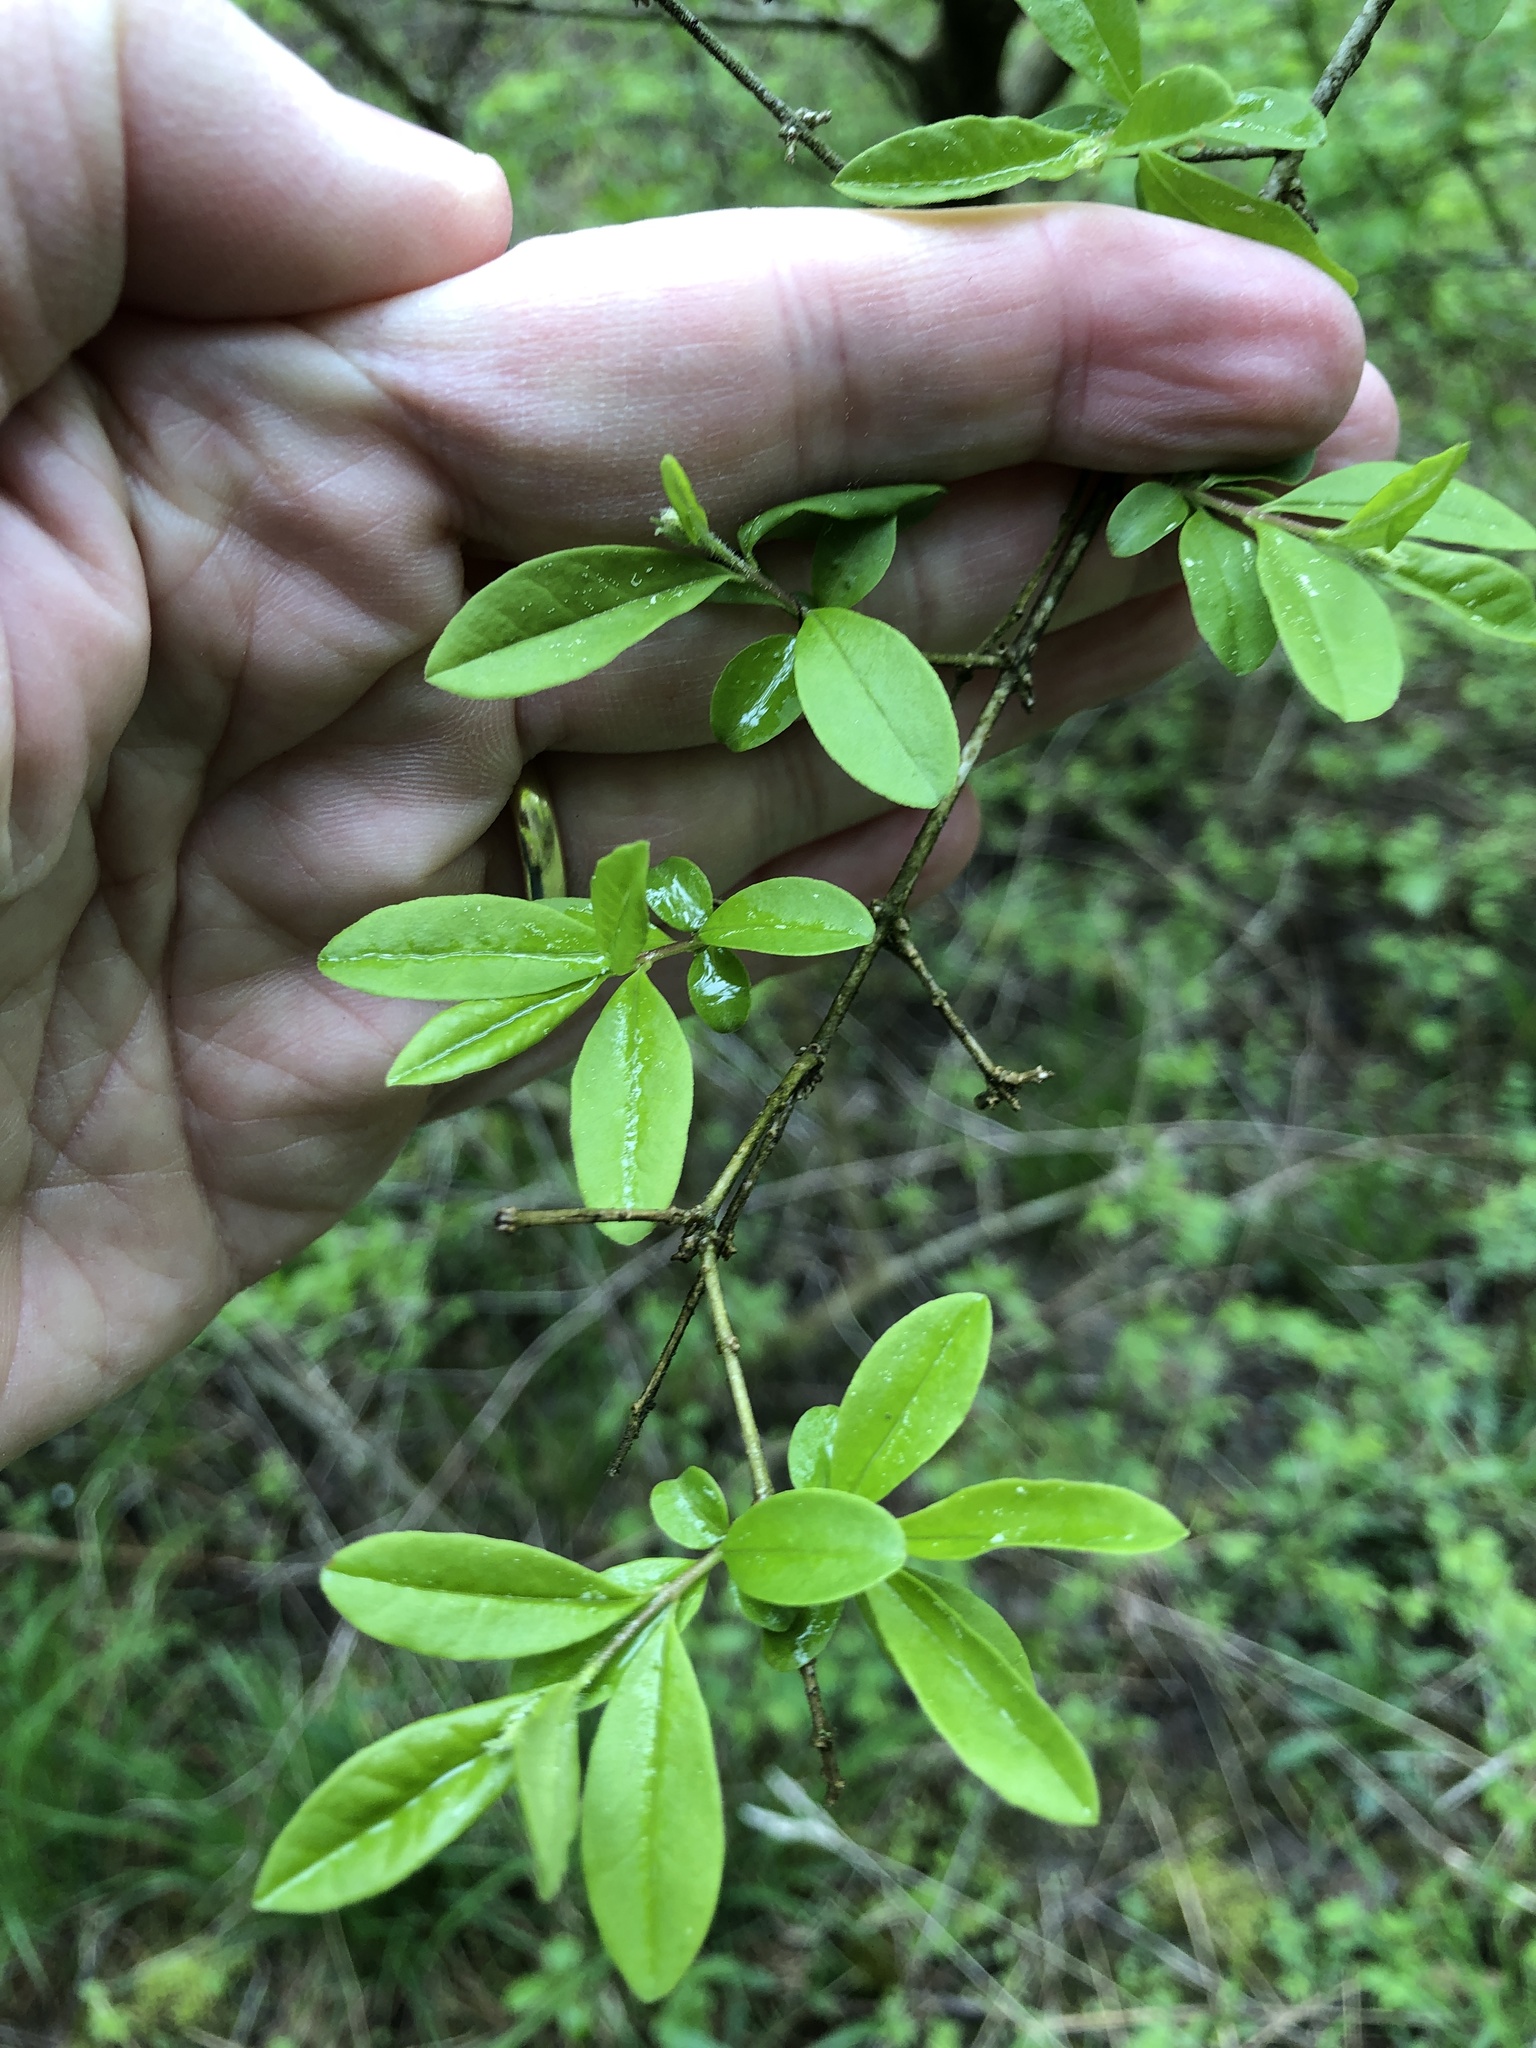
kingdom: Plantae
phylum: Tracheophyta
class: Magnoliopsida
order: Lamiales
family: Oleaceae
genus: Ligustrum
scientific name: Ligustrum obtusifolium
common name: Border privet
